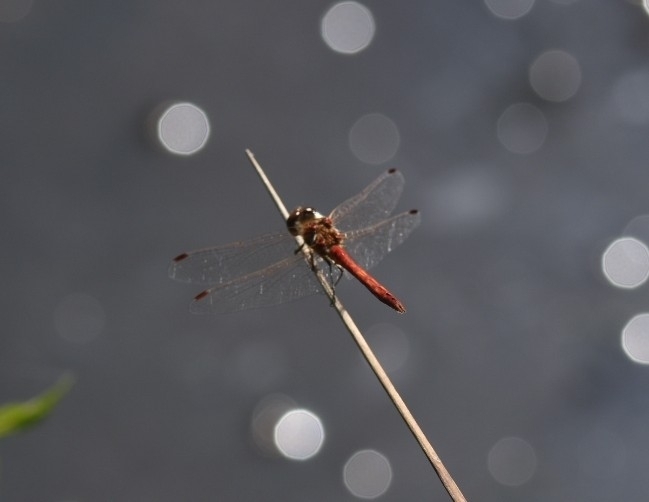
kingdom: Animalia
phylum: Arthropoda
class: Insecta
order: Odonata
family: Libellulidae
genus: Sympetrum
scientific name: Sympetrum vulgatum
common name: Vagrant darter
